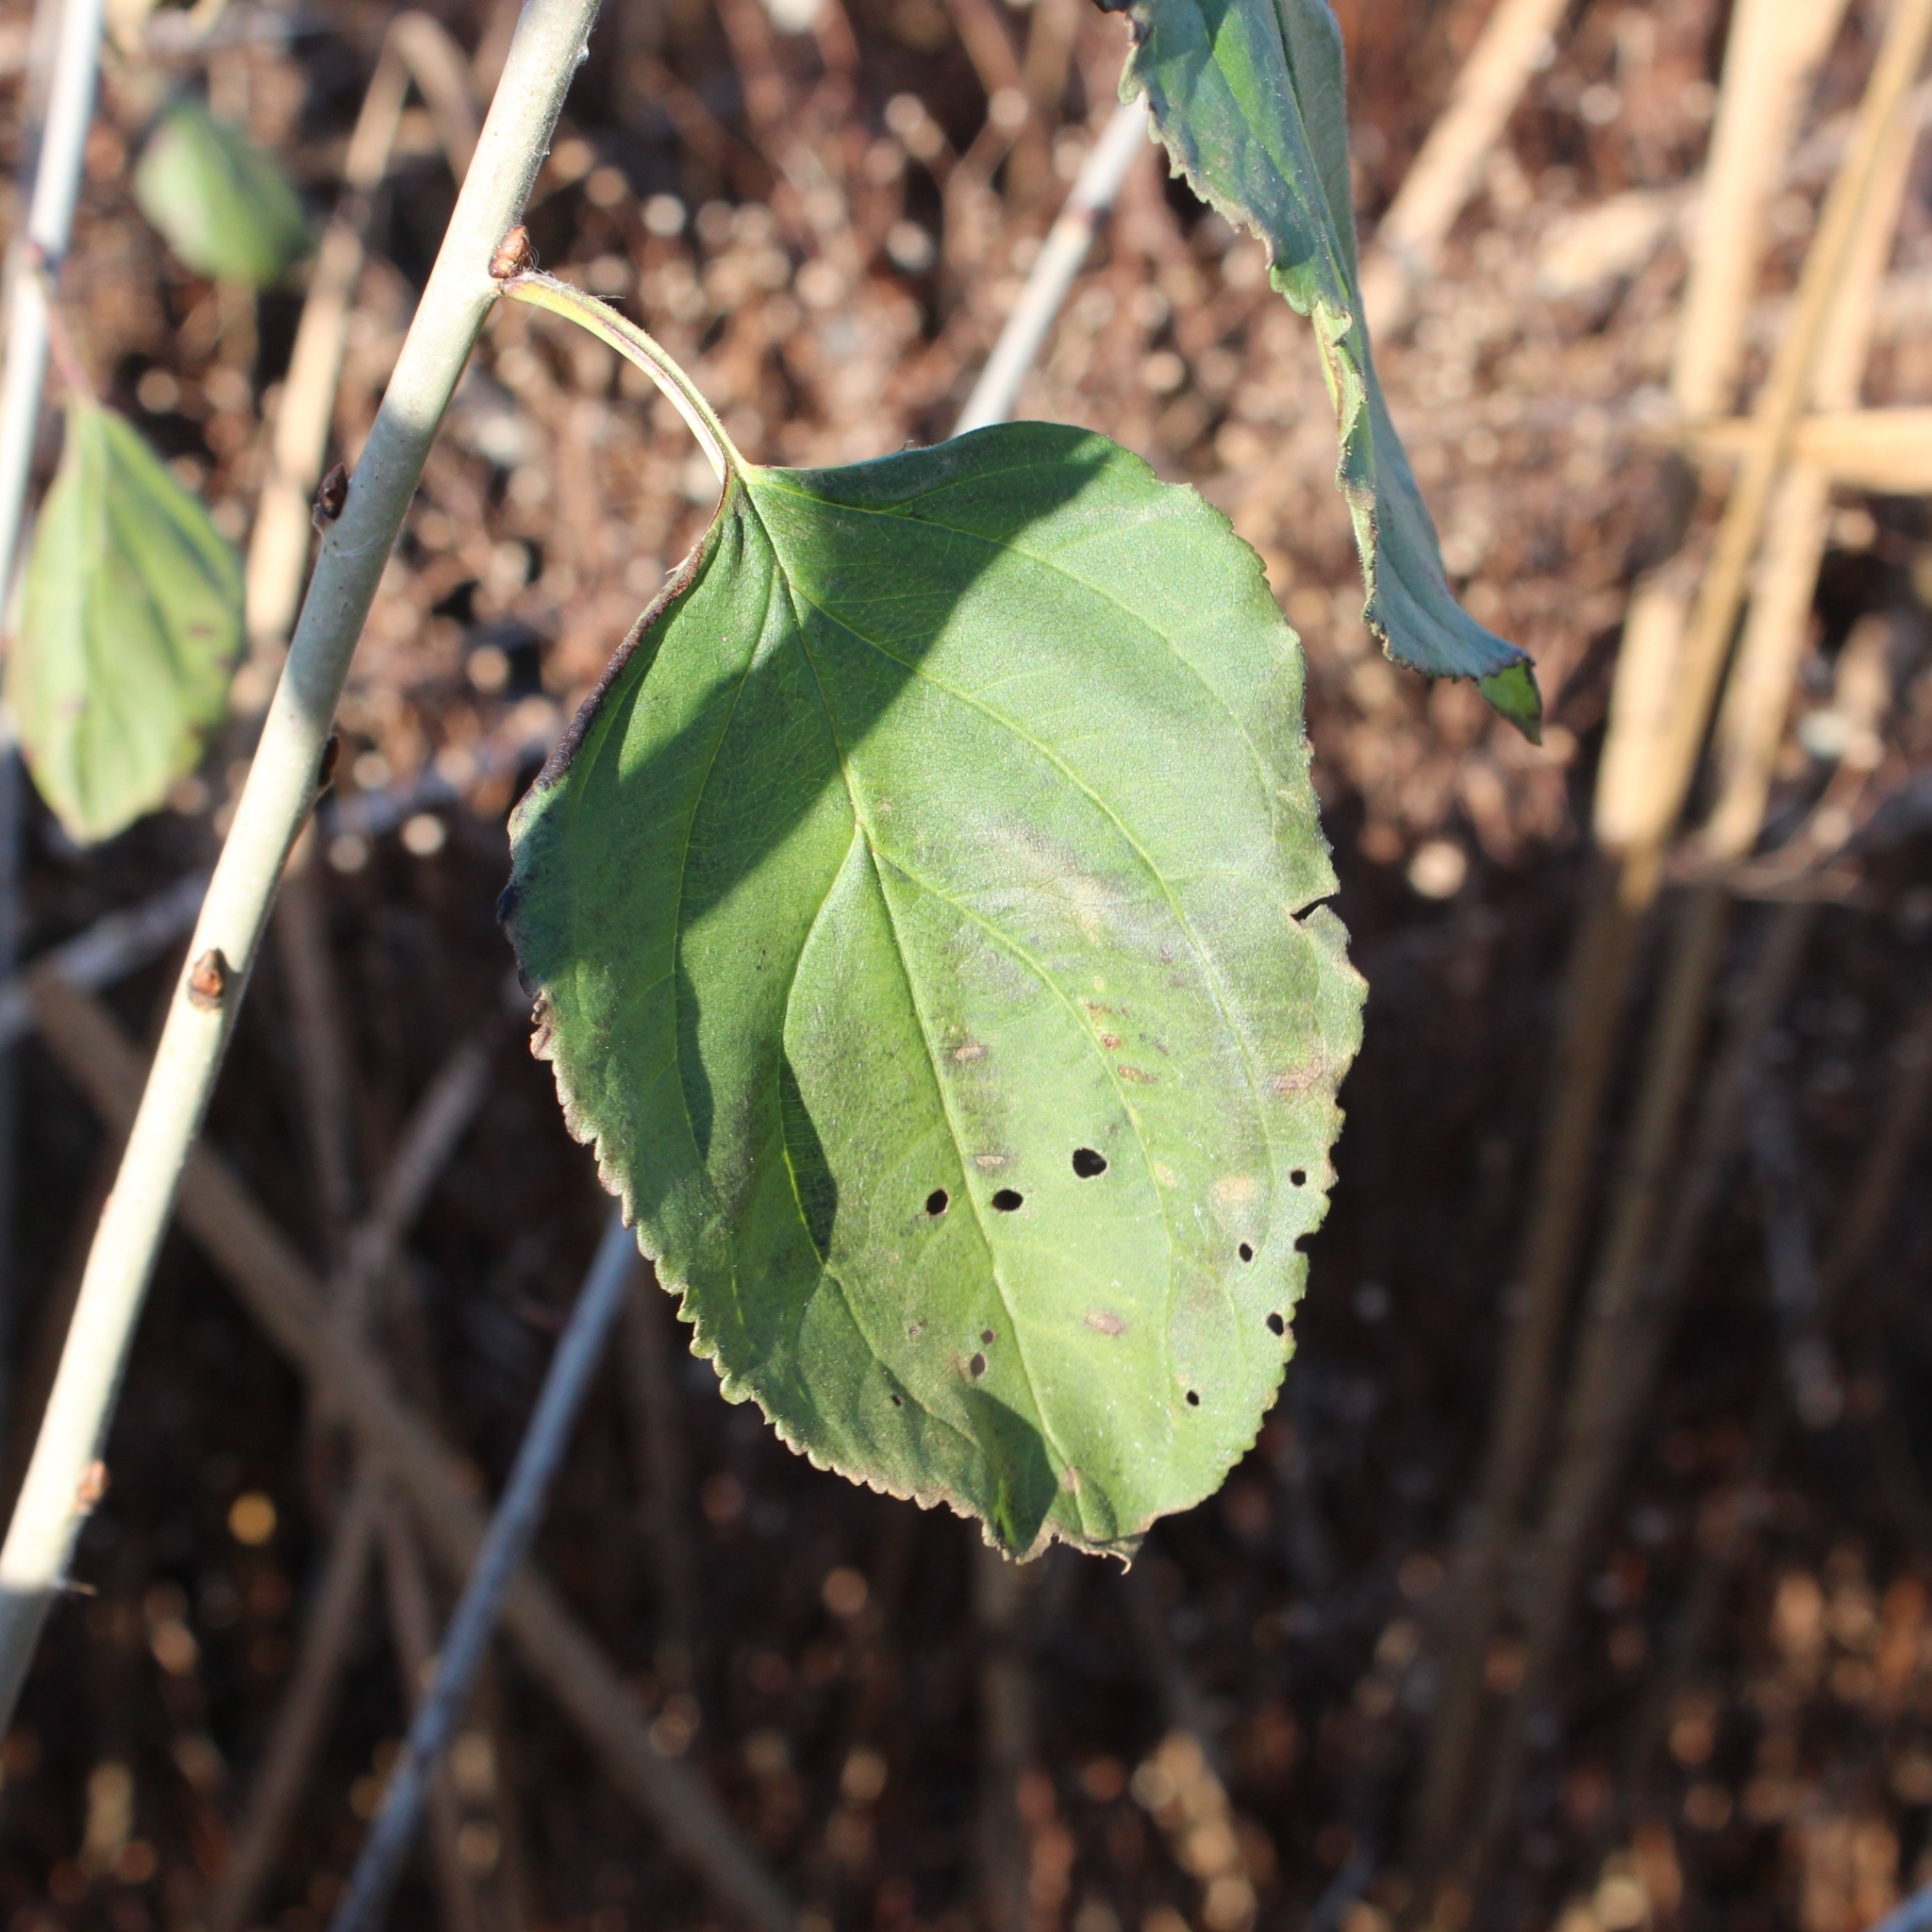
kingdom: Plantae
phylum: Tracheophyta
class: Magnoliopsida
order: Rosales
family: Rhamnaceae
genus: Rhamnus
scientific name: Rhamnus cathartica
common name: Common buckthorn
